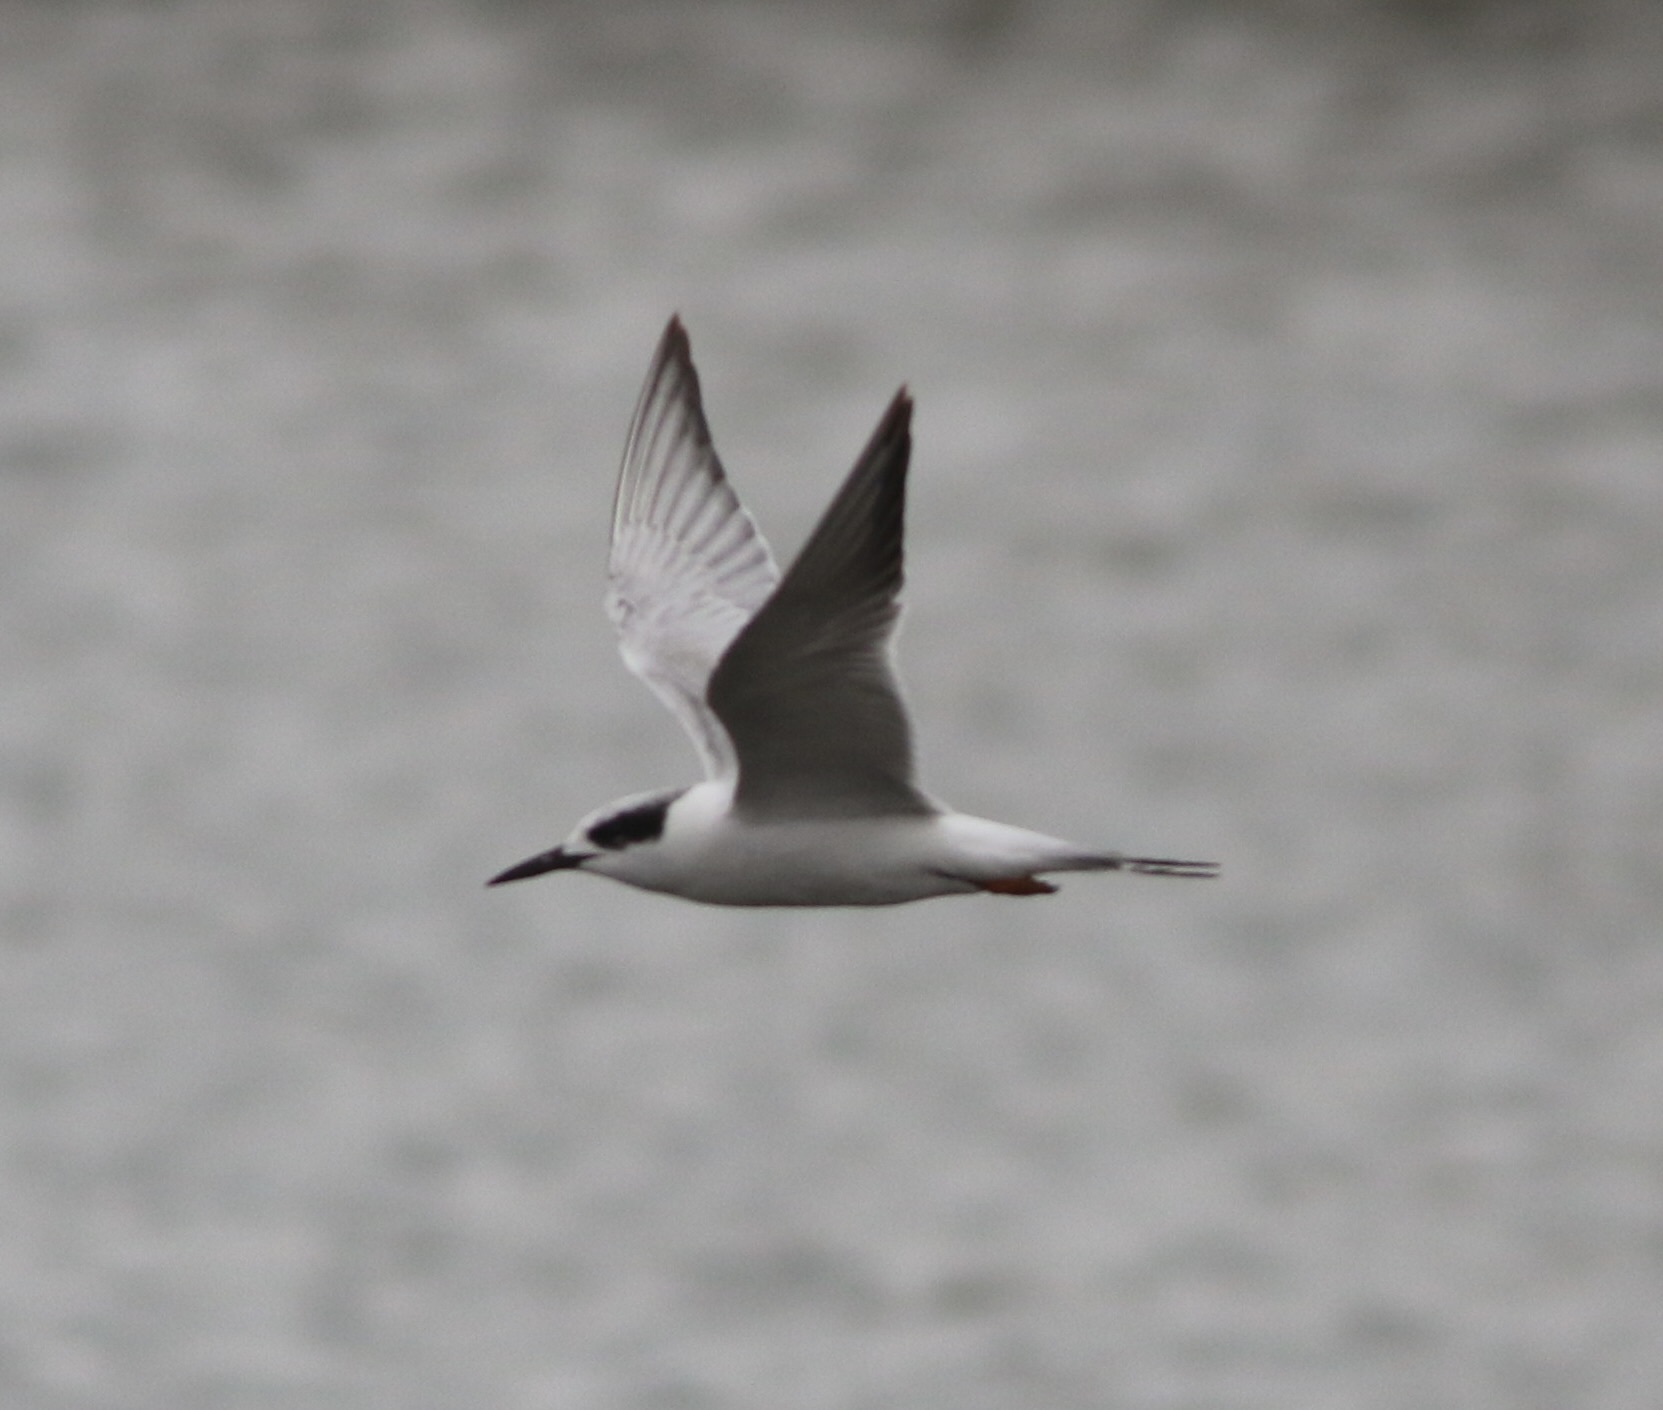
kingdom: Animalia
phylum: Chordata
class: Aves
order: Charadriiformes
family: Laridae
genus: Sterna
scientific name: Sterna forsteri
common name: Forster's tern
